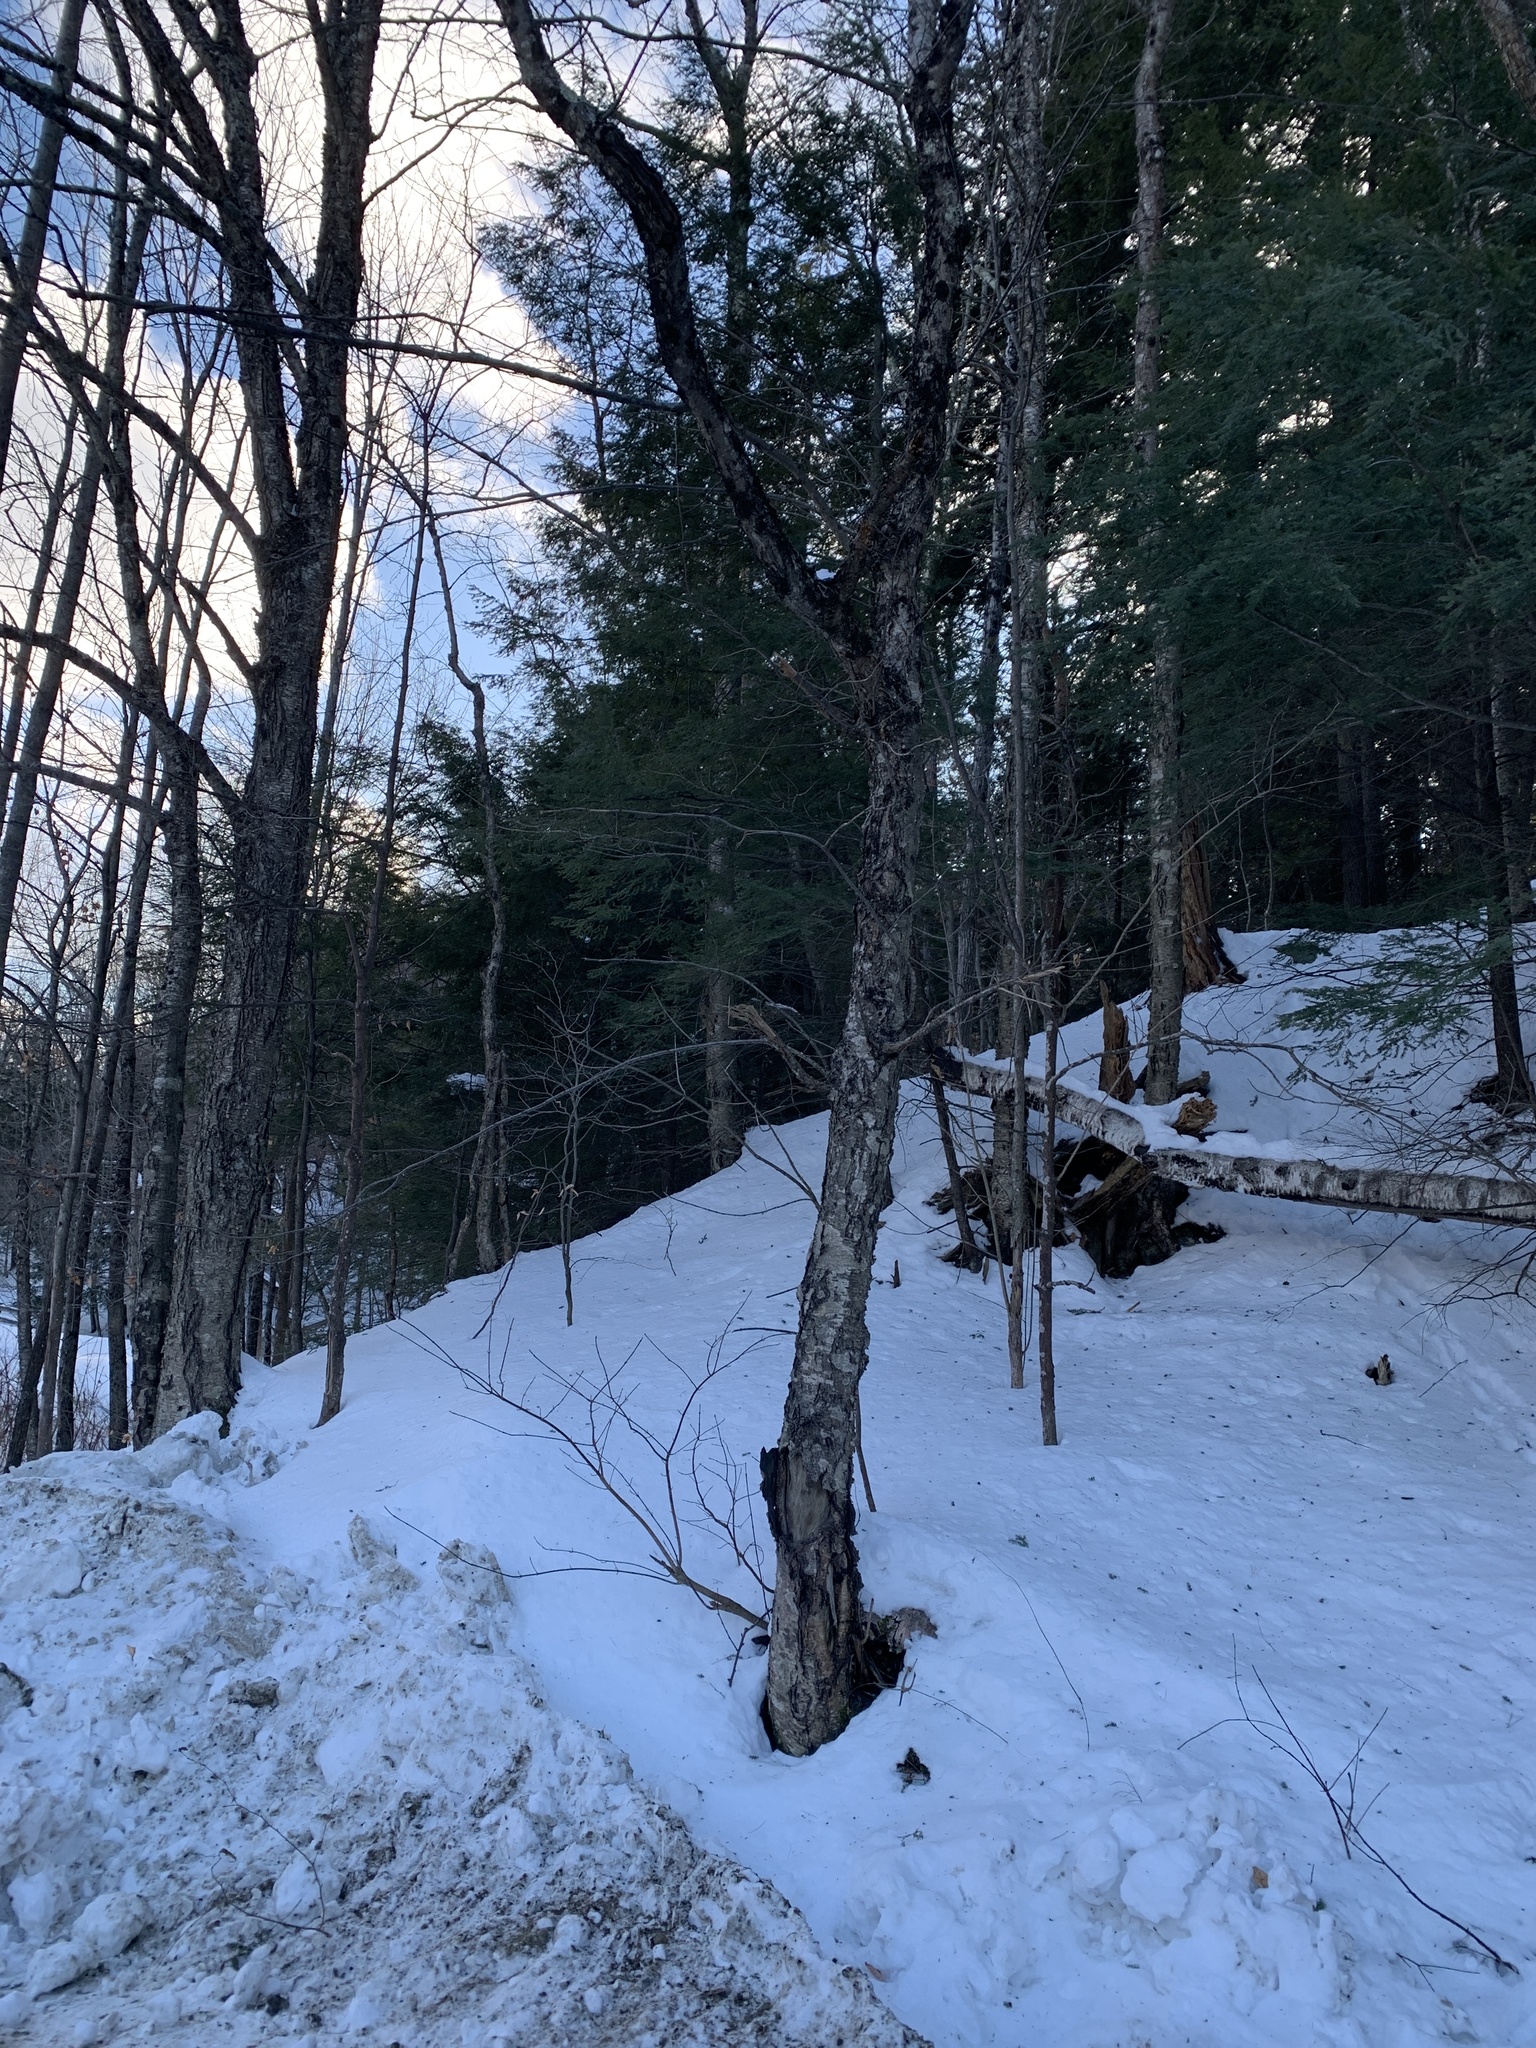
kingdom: Plantae
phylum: Tracheophyta
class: Magnoliopsida
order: Fagales
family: Betulaceae
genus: Betula
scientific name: Betula alleghaniensis
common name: Yellow birch
